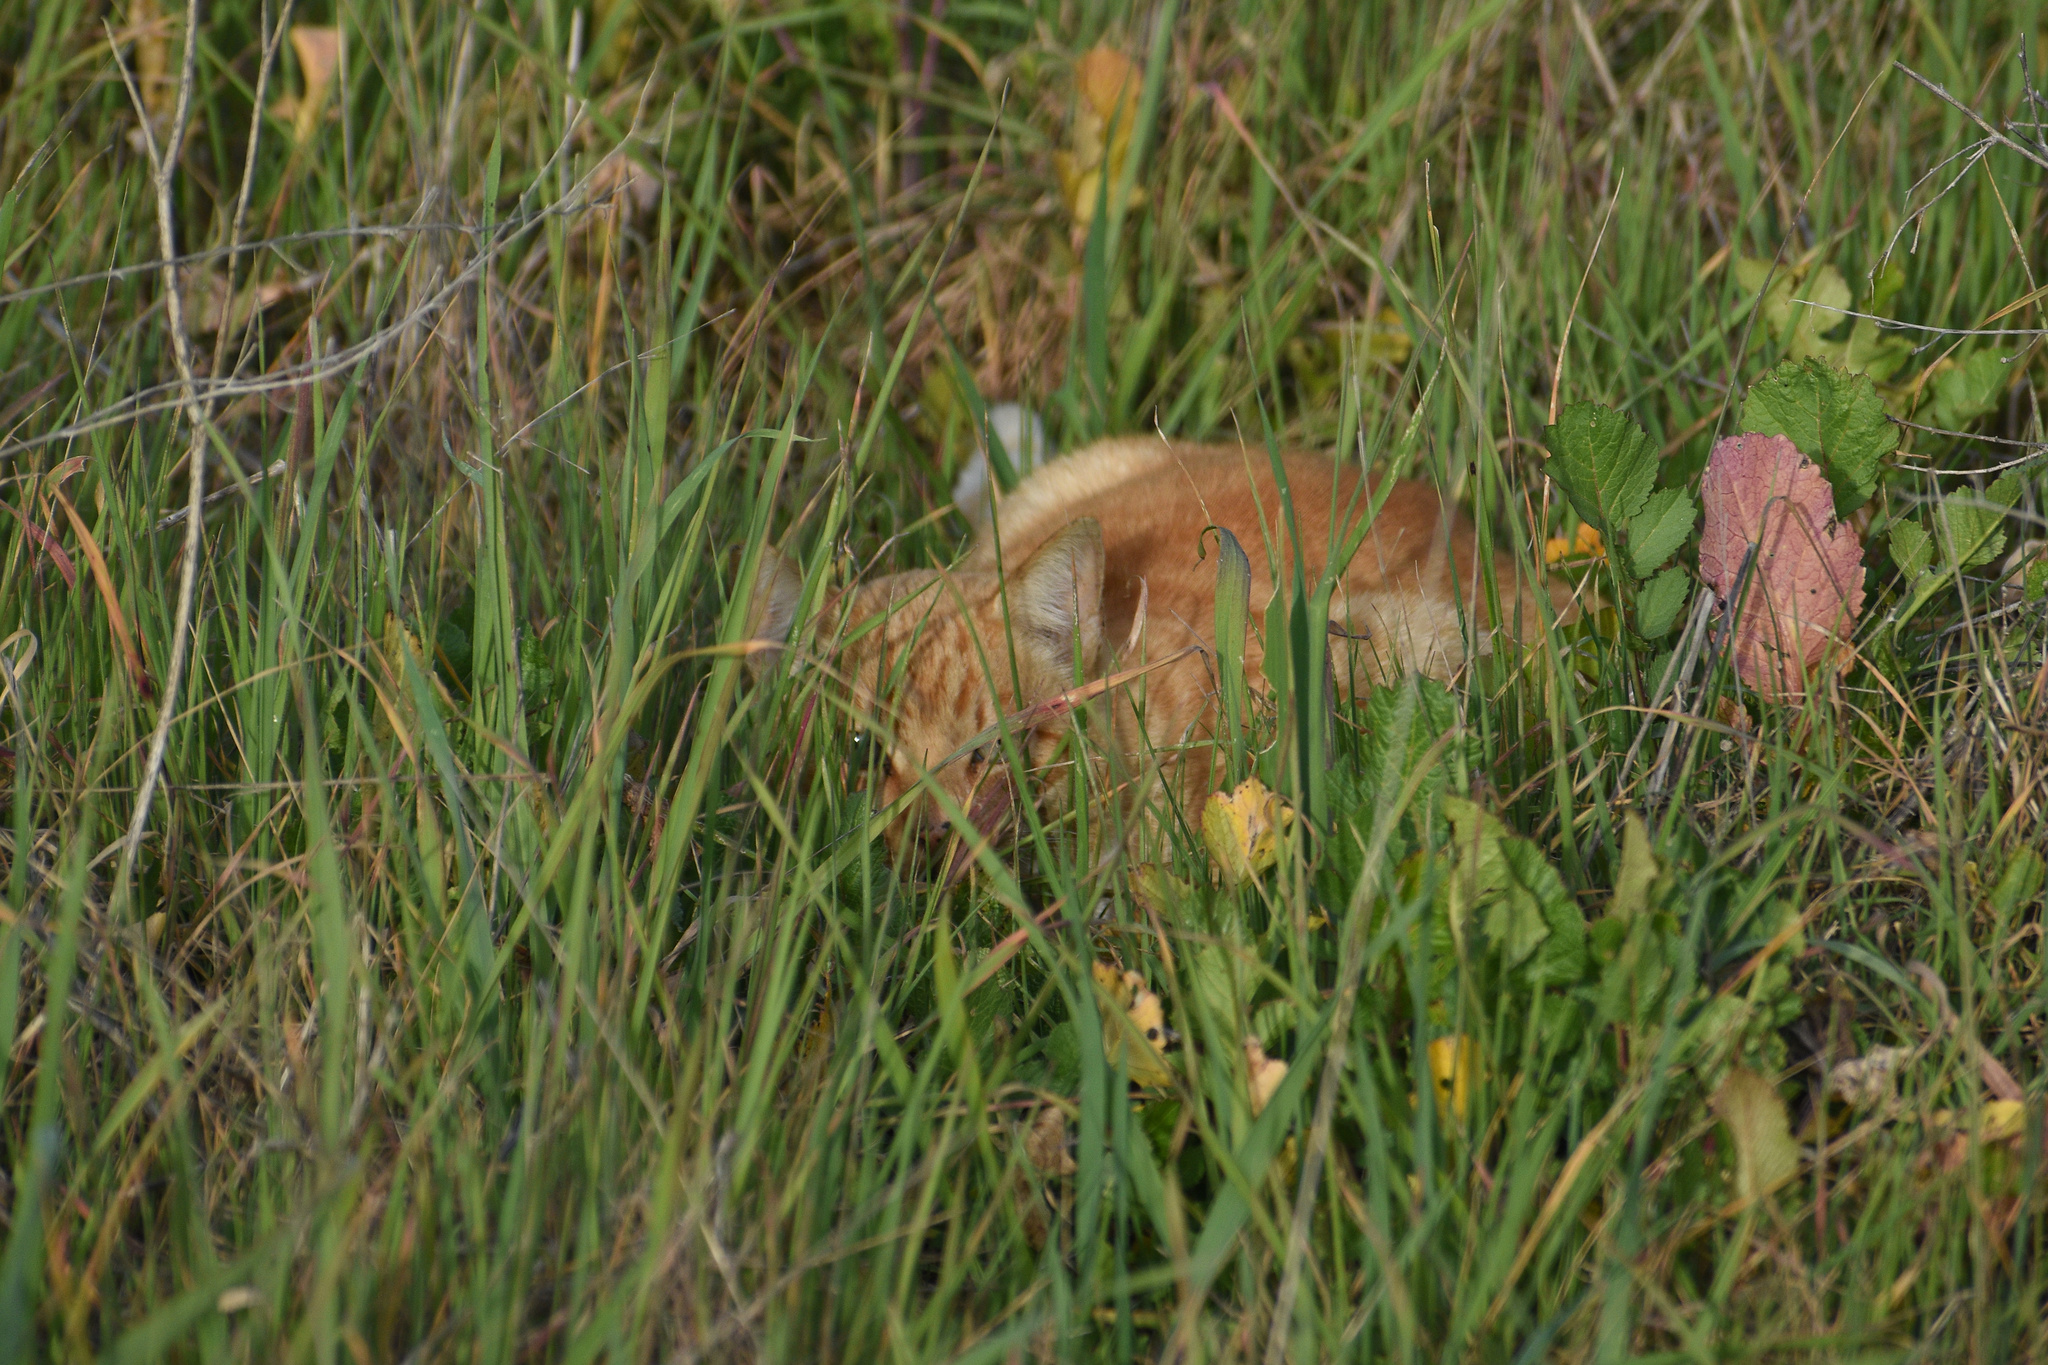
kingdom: Animalia
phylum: Chordata
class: Mammalia
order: Carnivora
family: Felidae
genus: Felis
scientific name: Felis catus
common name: Domestic cat
